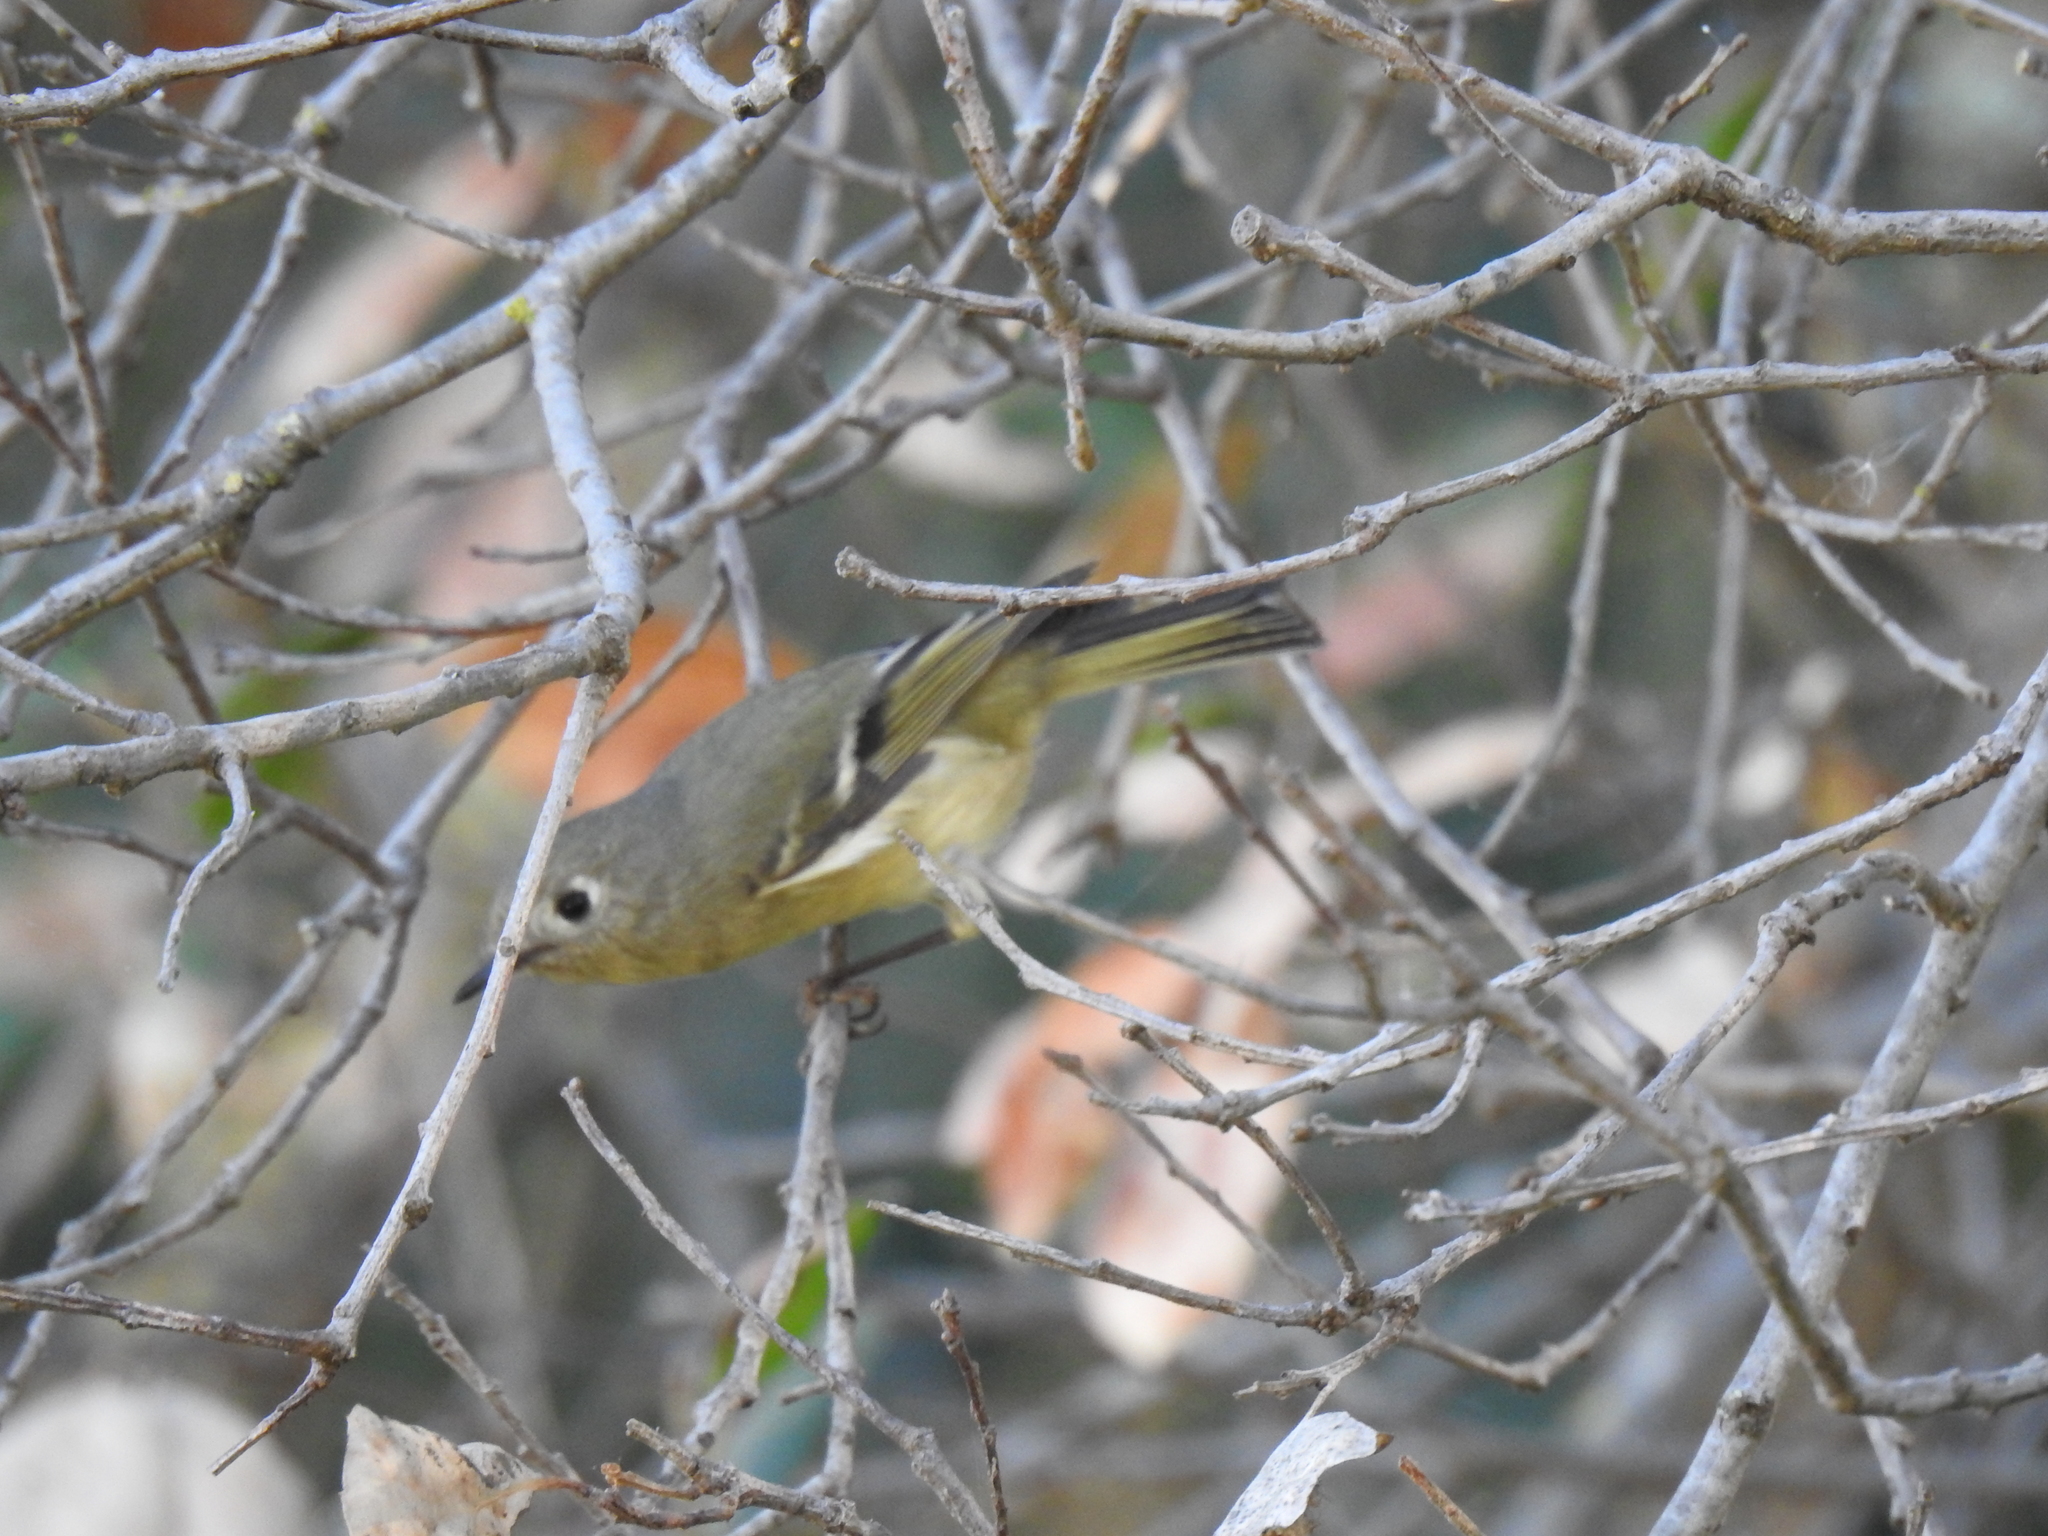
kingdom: Animalia
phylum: Chordata
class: Aves
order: Passeriformes
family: Regulidae
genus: Regulus
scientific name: Regulus calendula
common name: Ruby-crowned kinglet
